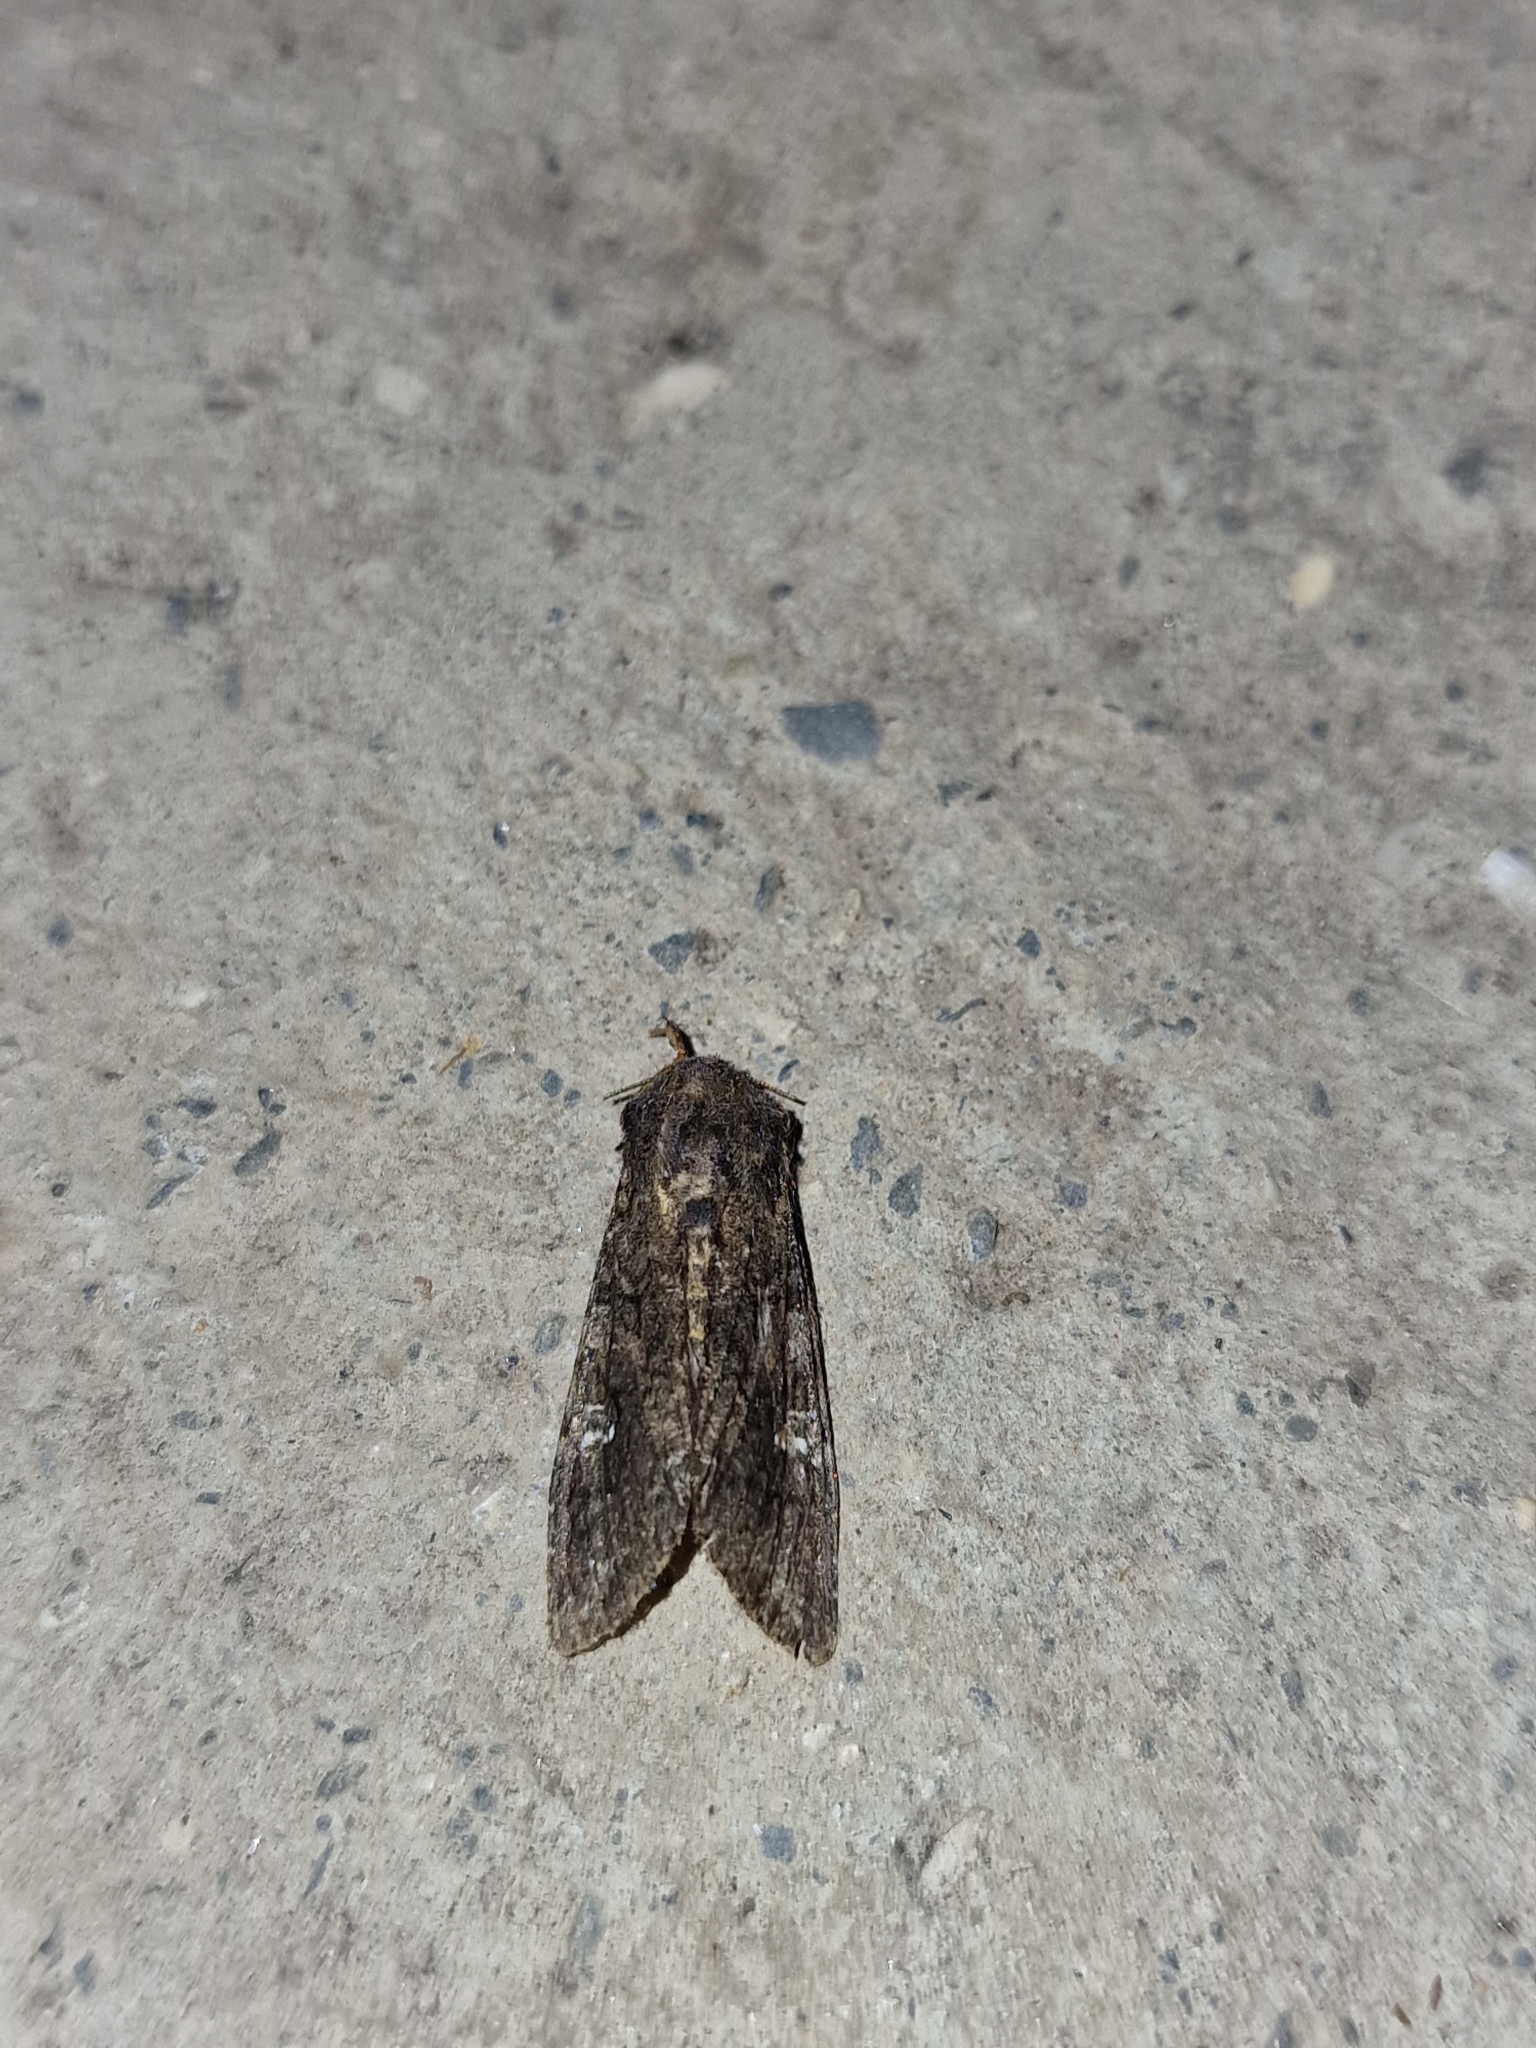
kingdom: Animalia
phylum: Arthropoda
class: Insecta
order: Lepidoptera
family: Noctuidae
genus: Mamestra
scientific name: Mamestra brassicae
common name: Cabbage moth
